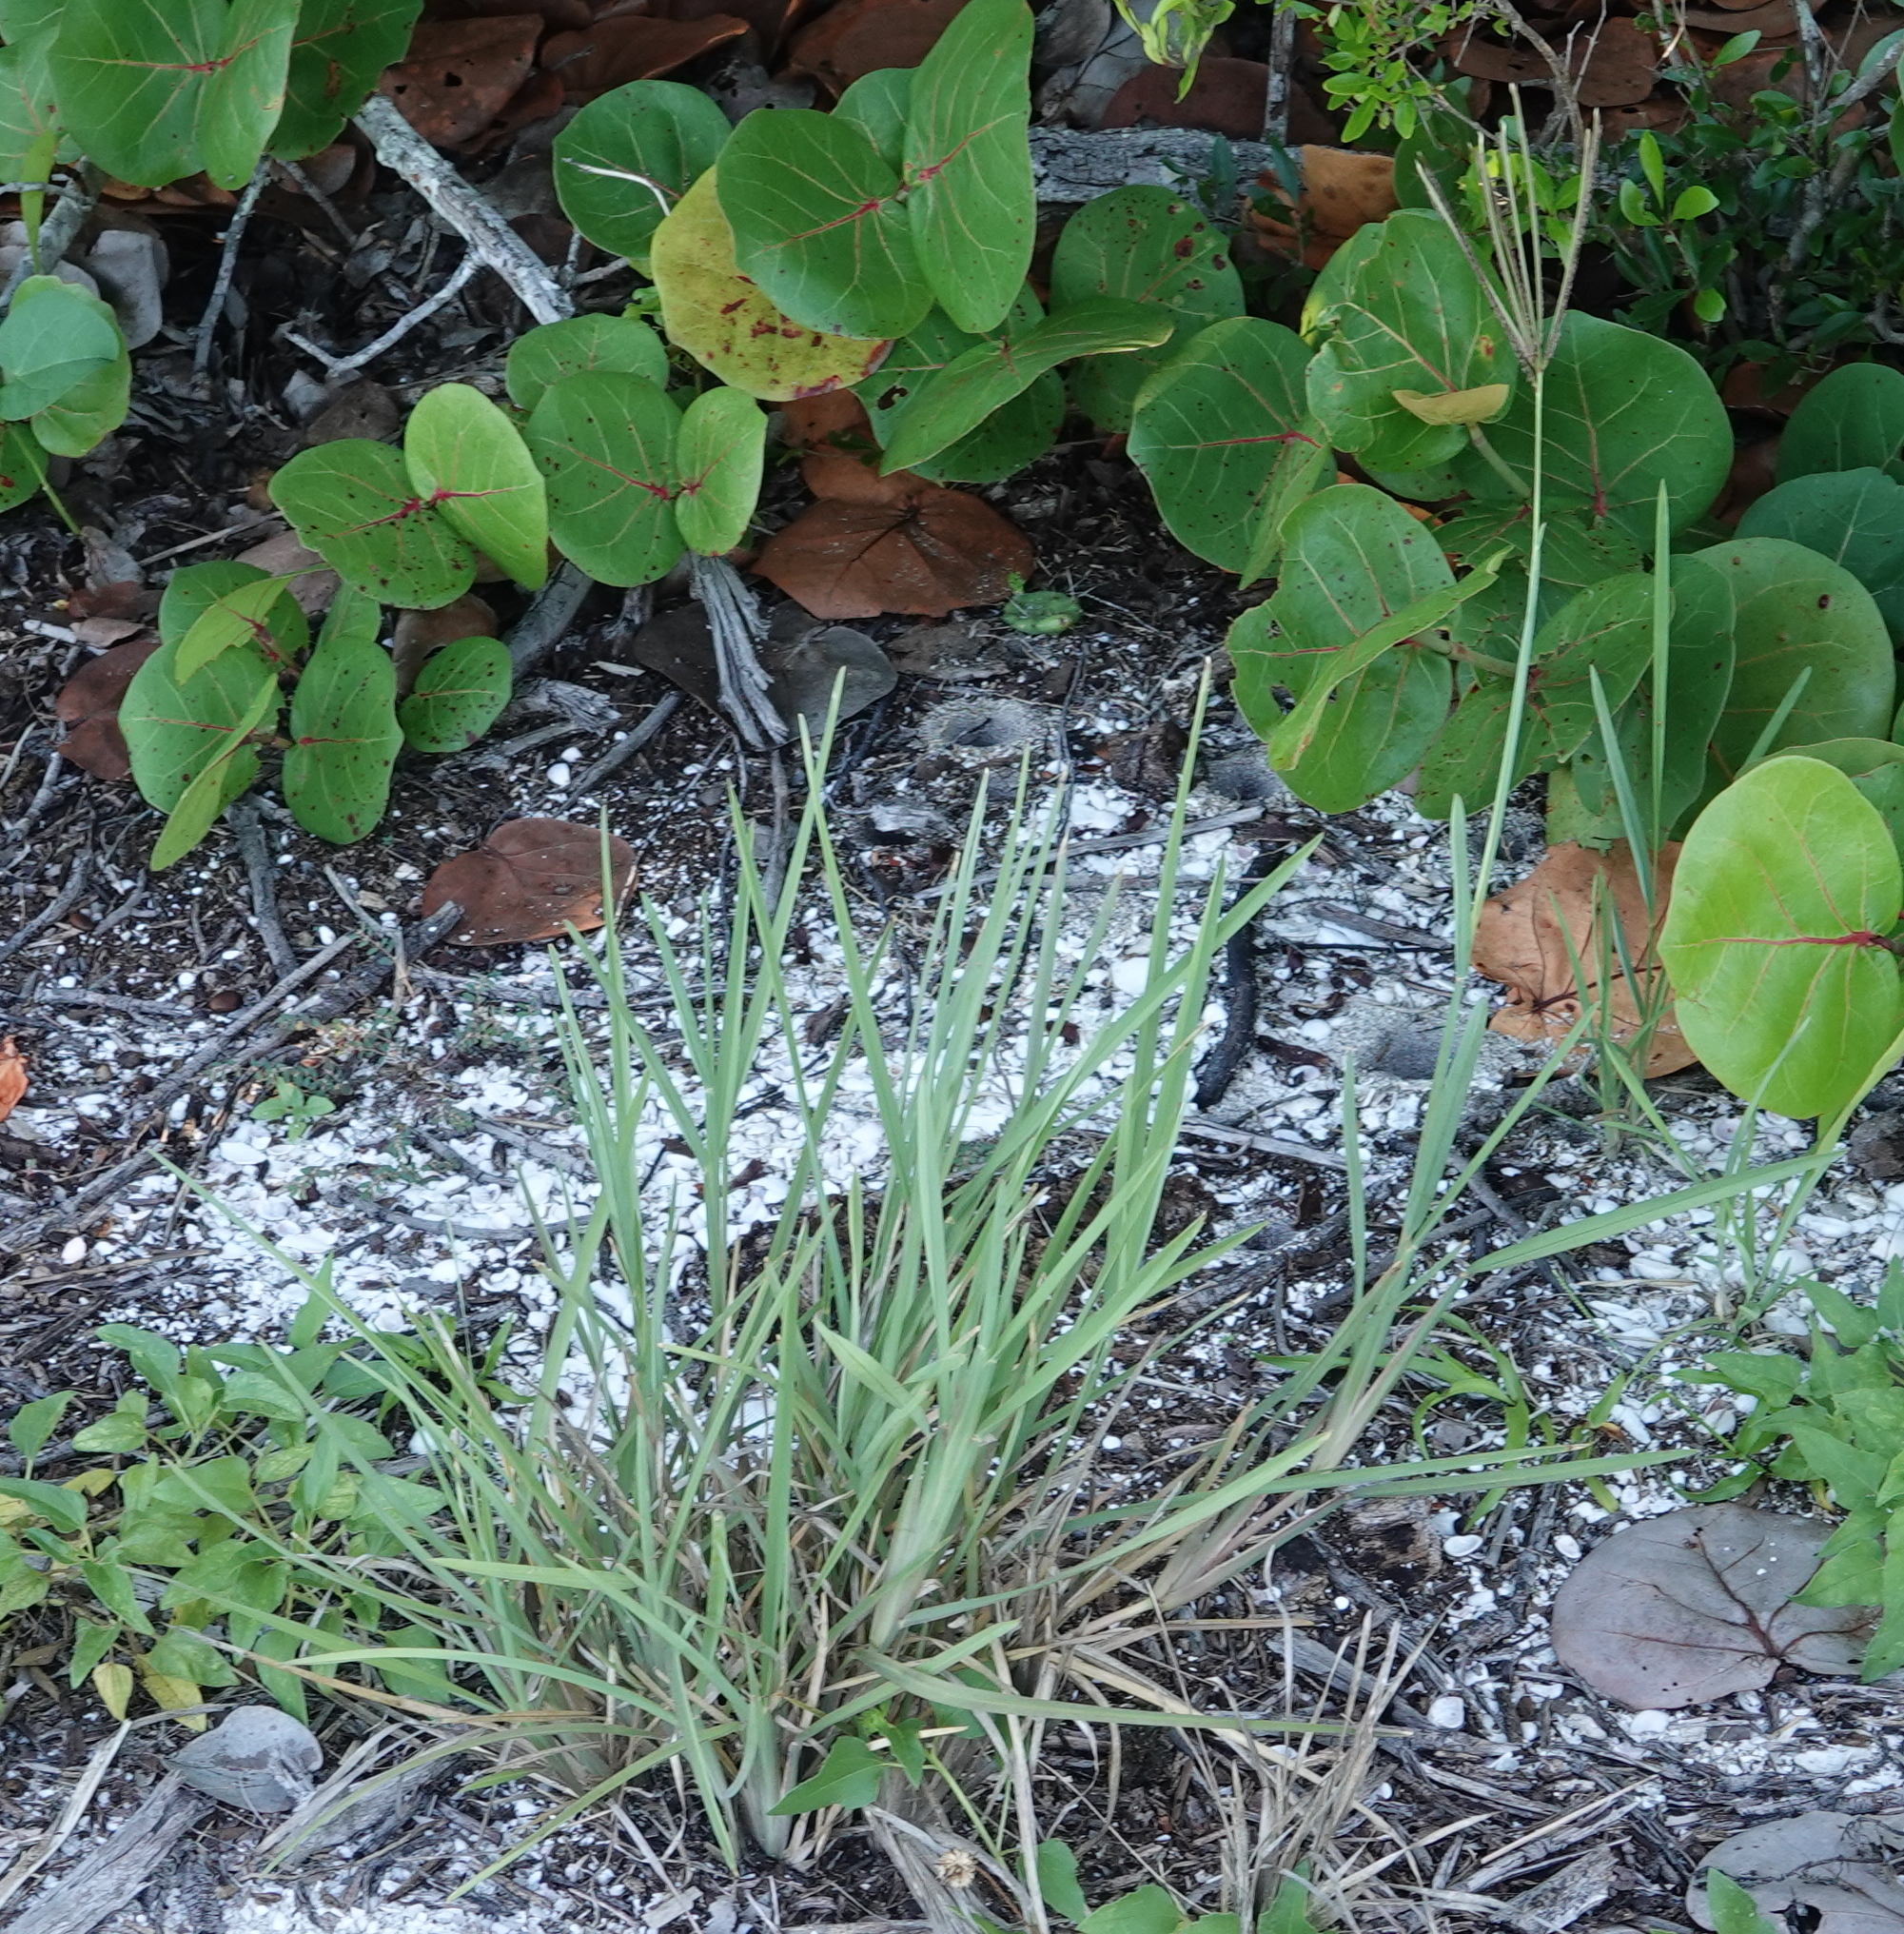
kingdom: Plantae
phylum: Tracheophyta
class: Liliopsida
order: Poales
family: Poaceae
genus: Eustachys
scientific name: Eustachys petraea
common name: Pinewoods fingergrass
